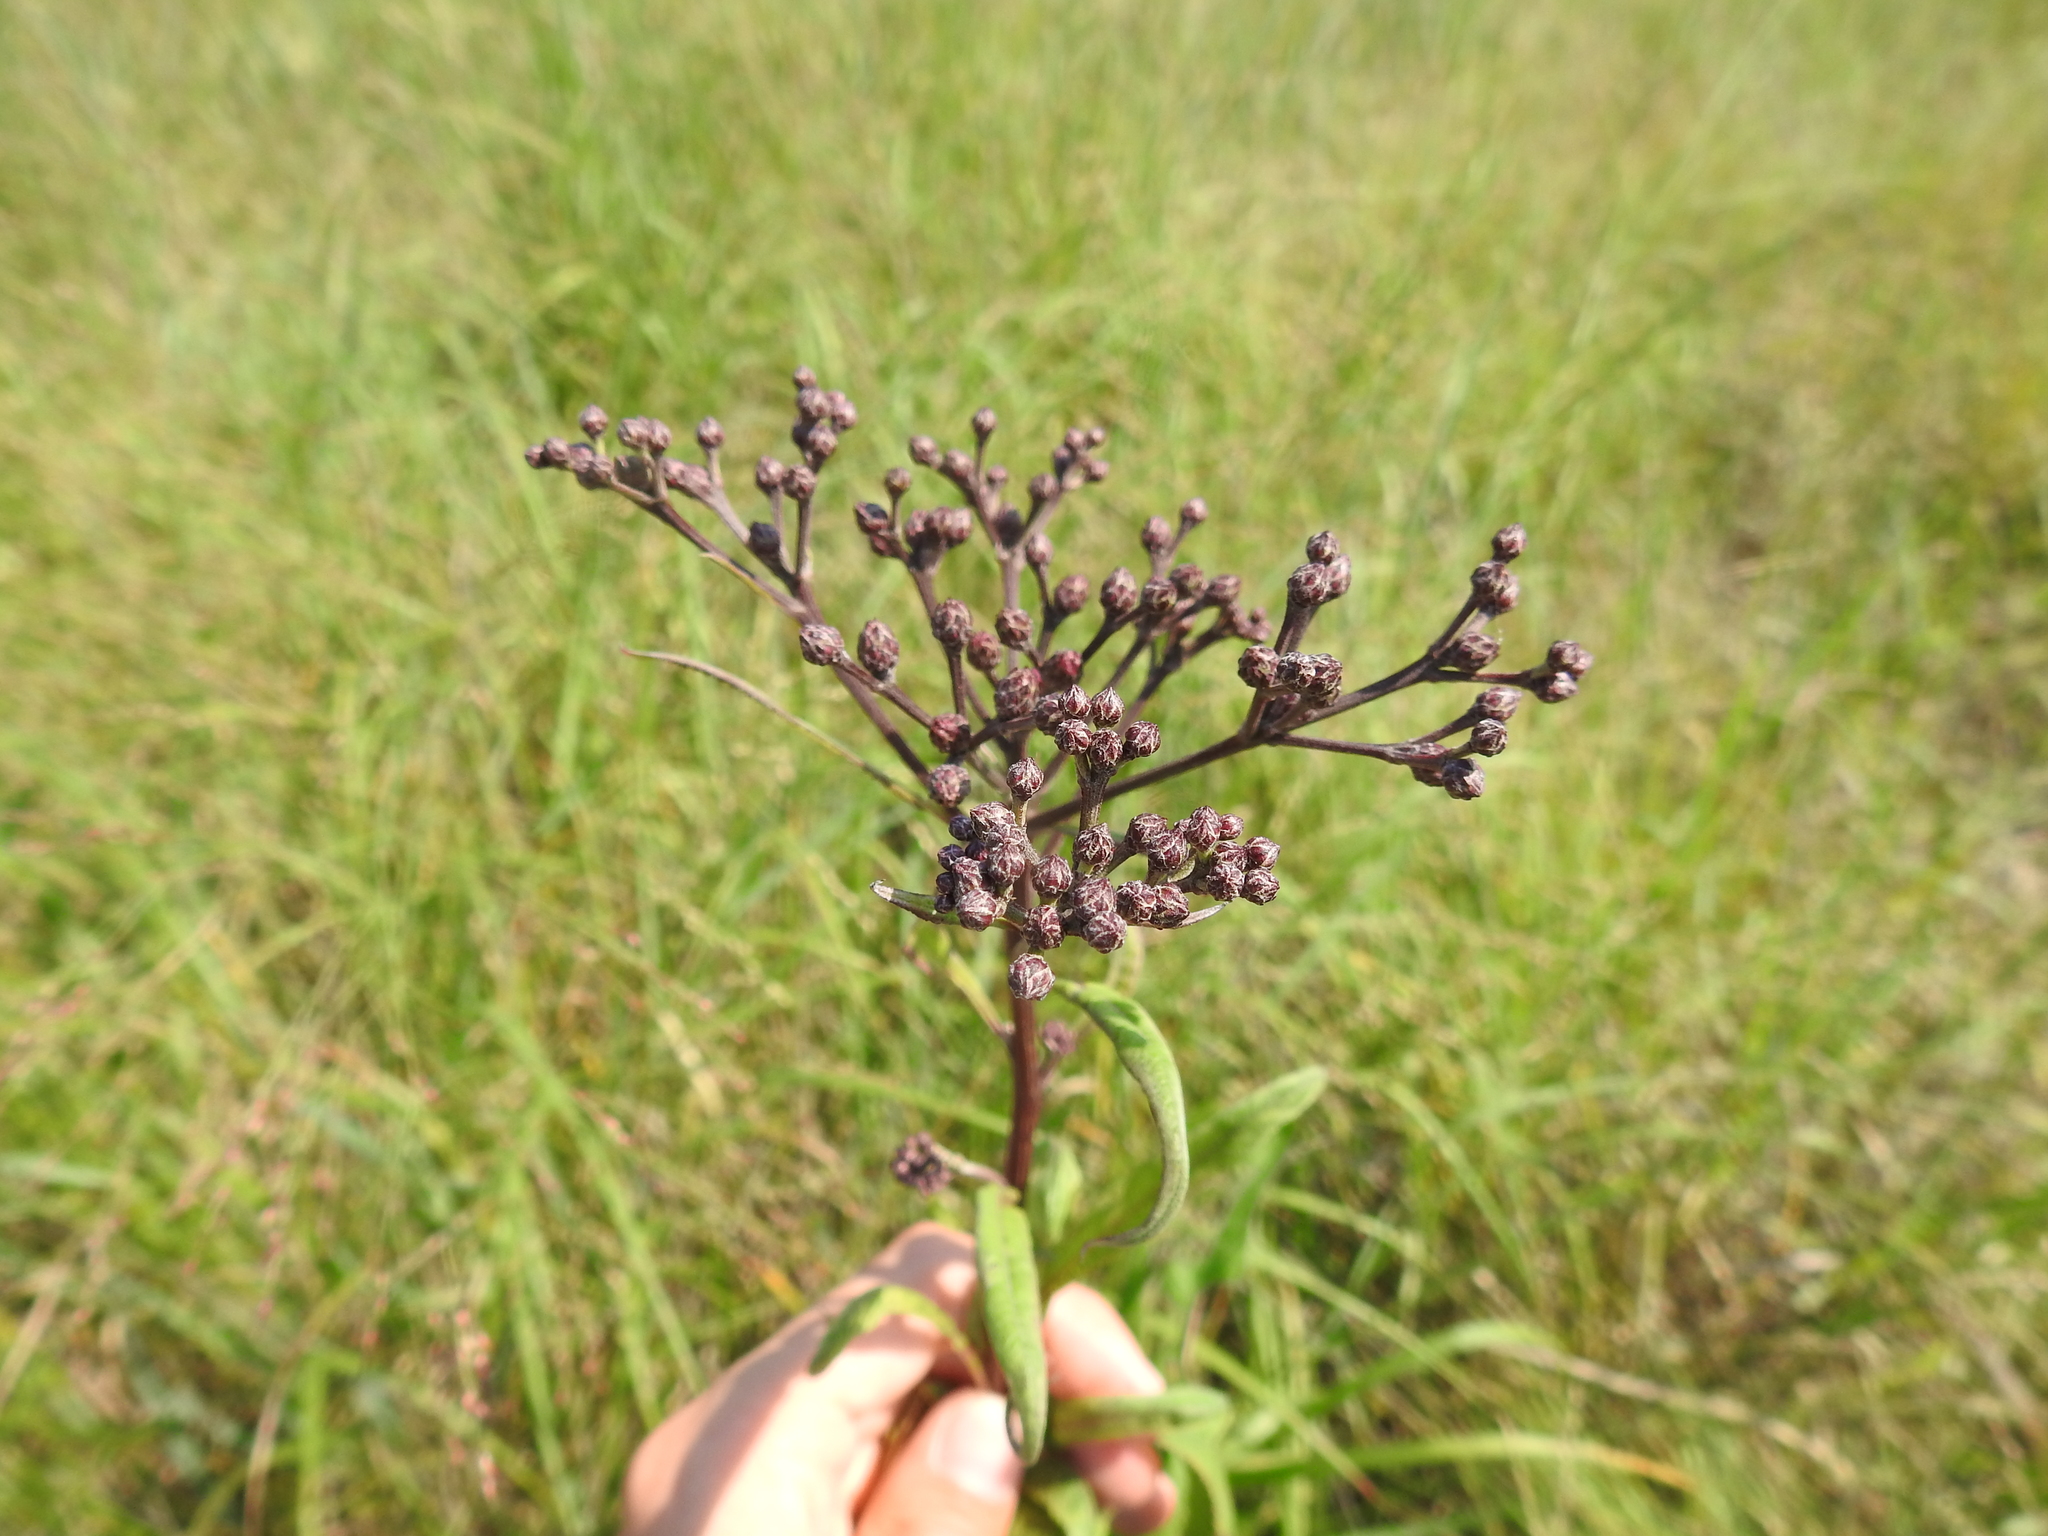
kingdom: Plantae
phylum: Tracheophyta
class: Magnoliopsida
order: Asterales
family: Asteraceae
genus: Vernonia
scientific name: Vernonia gigantea
